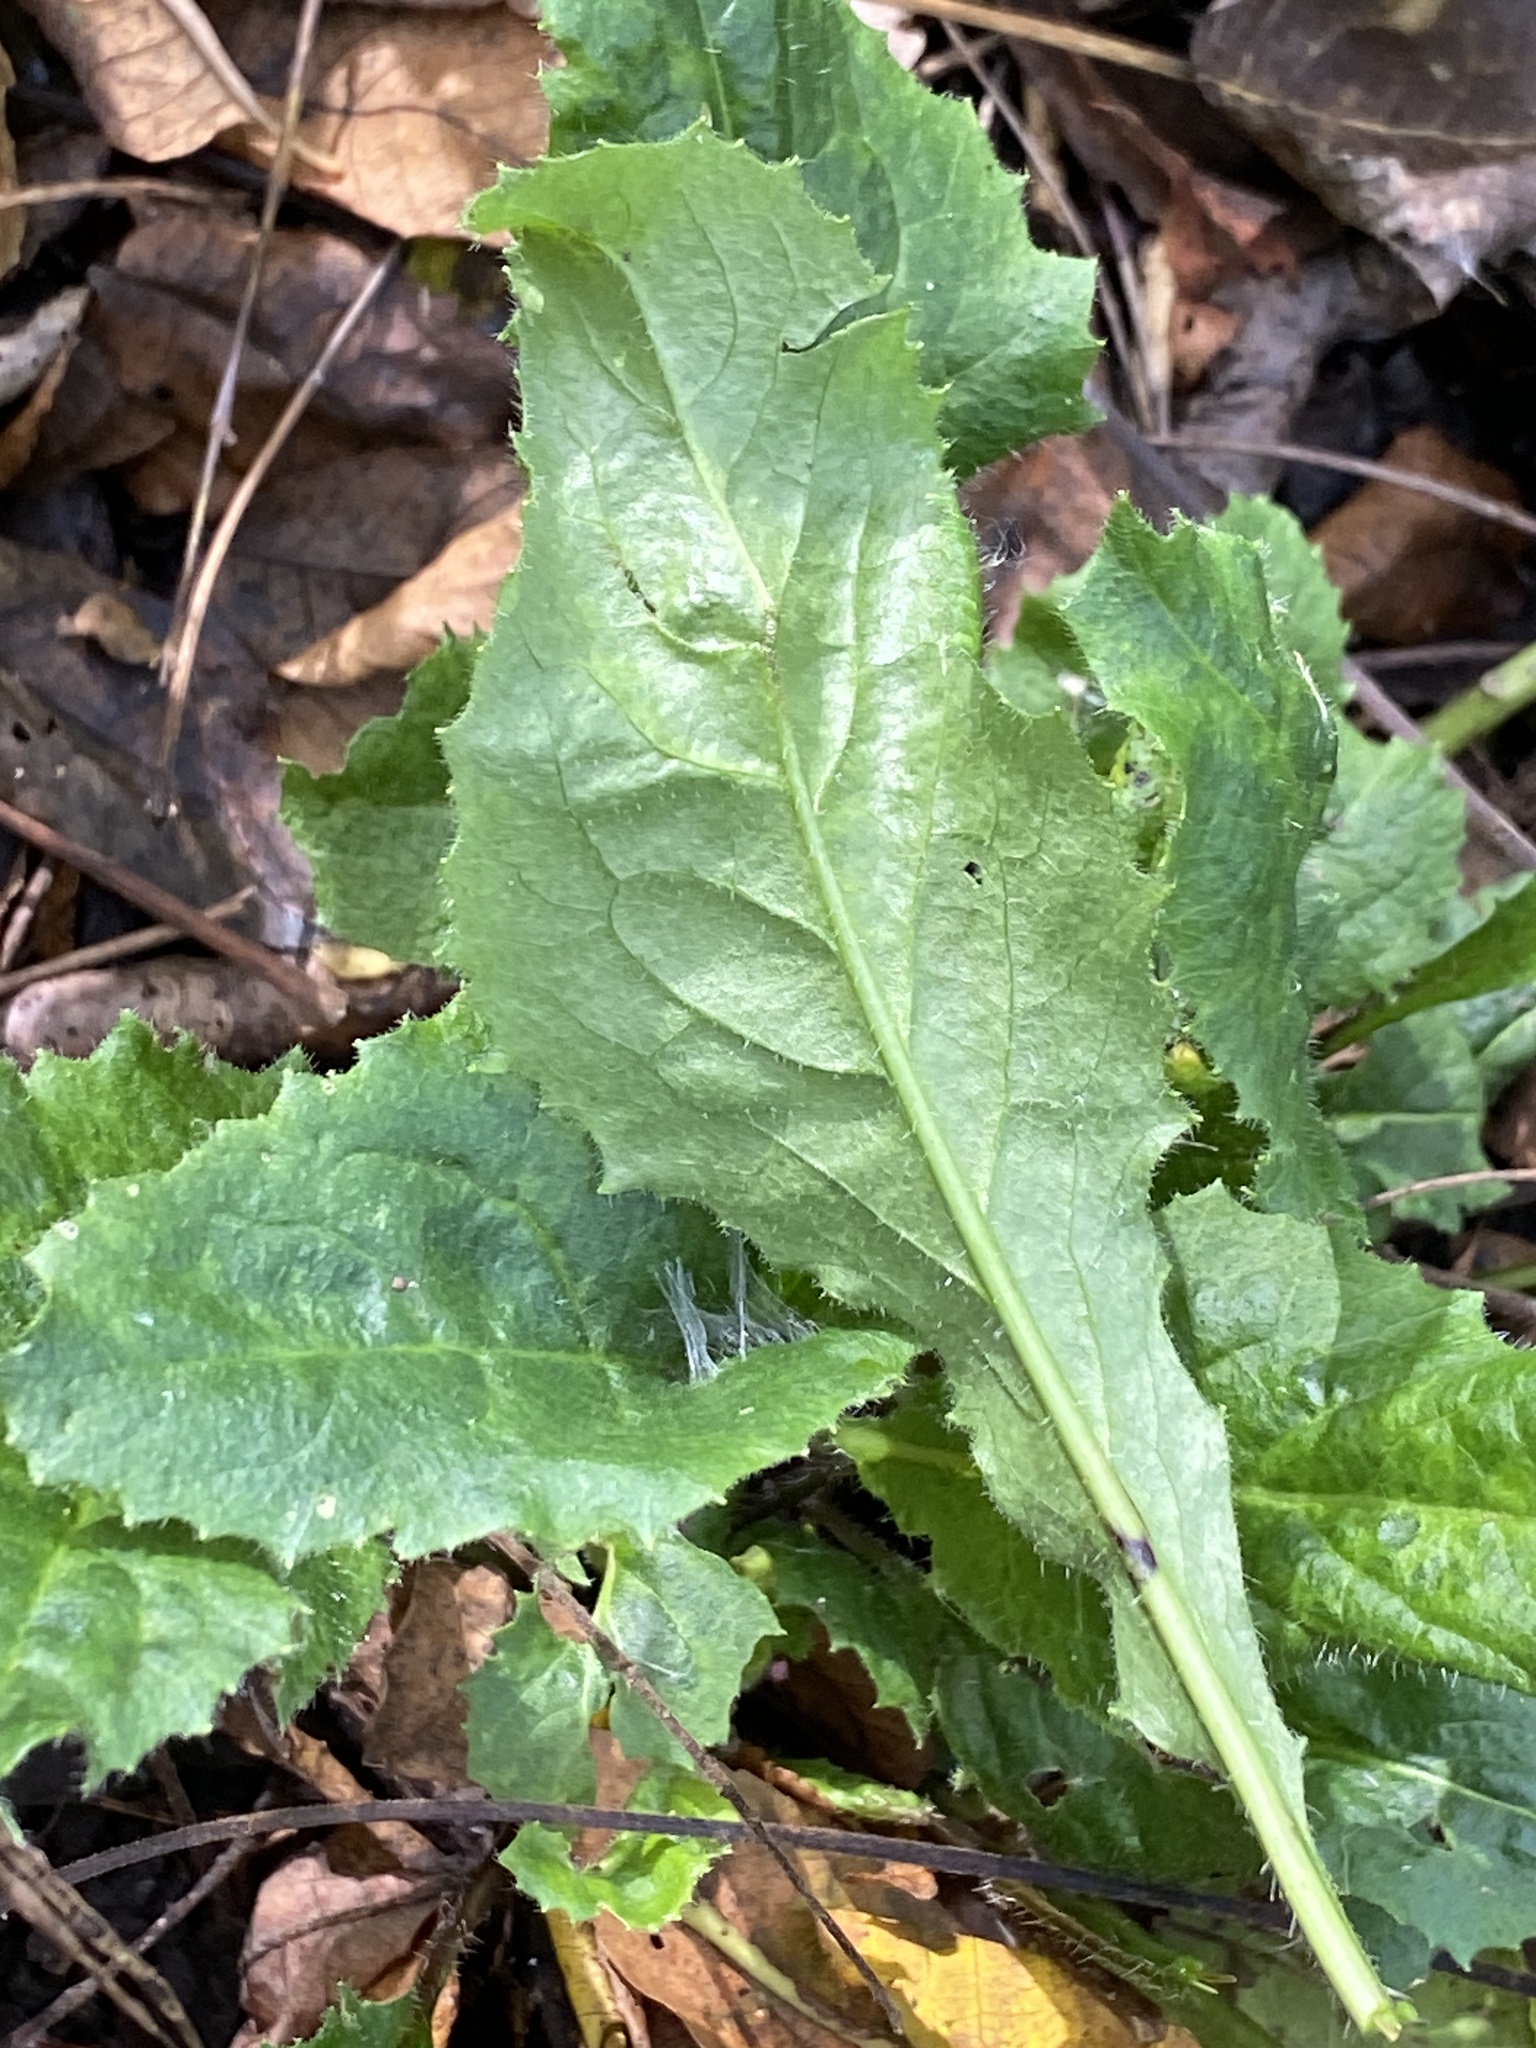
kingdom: Plantae
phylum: Tracheophyta
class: Magnoliopsida
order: Brassicales
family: Brassicaceae
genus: Hesperis
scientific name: Hesperis matronalis
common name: Dame's-violet
